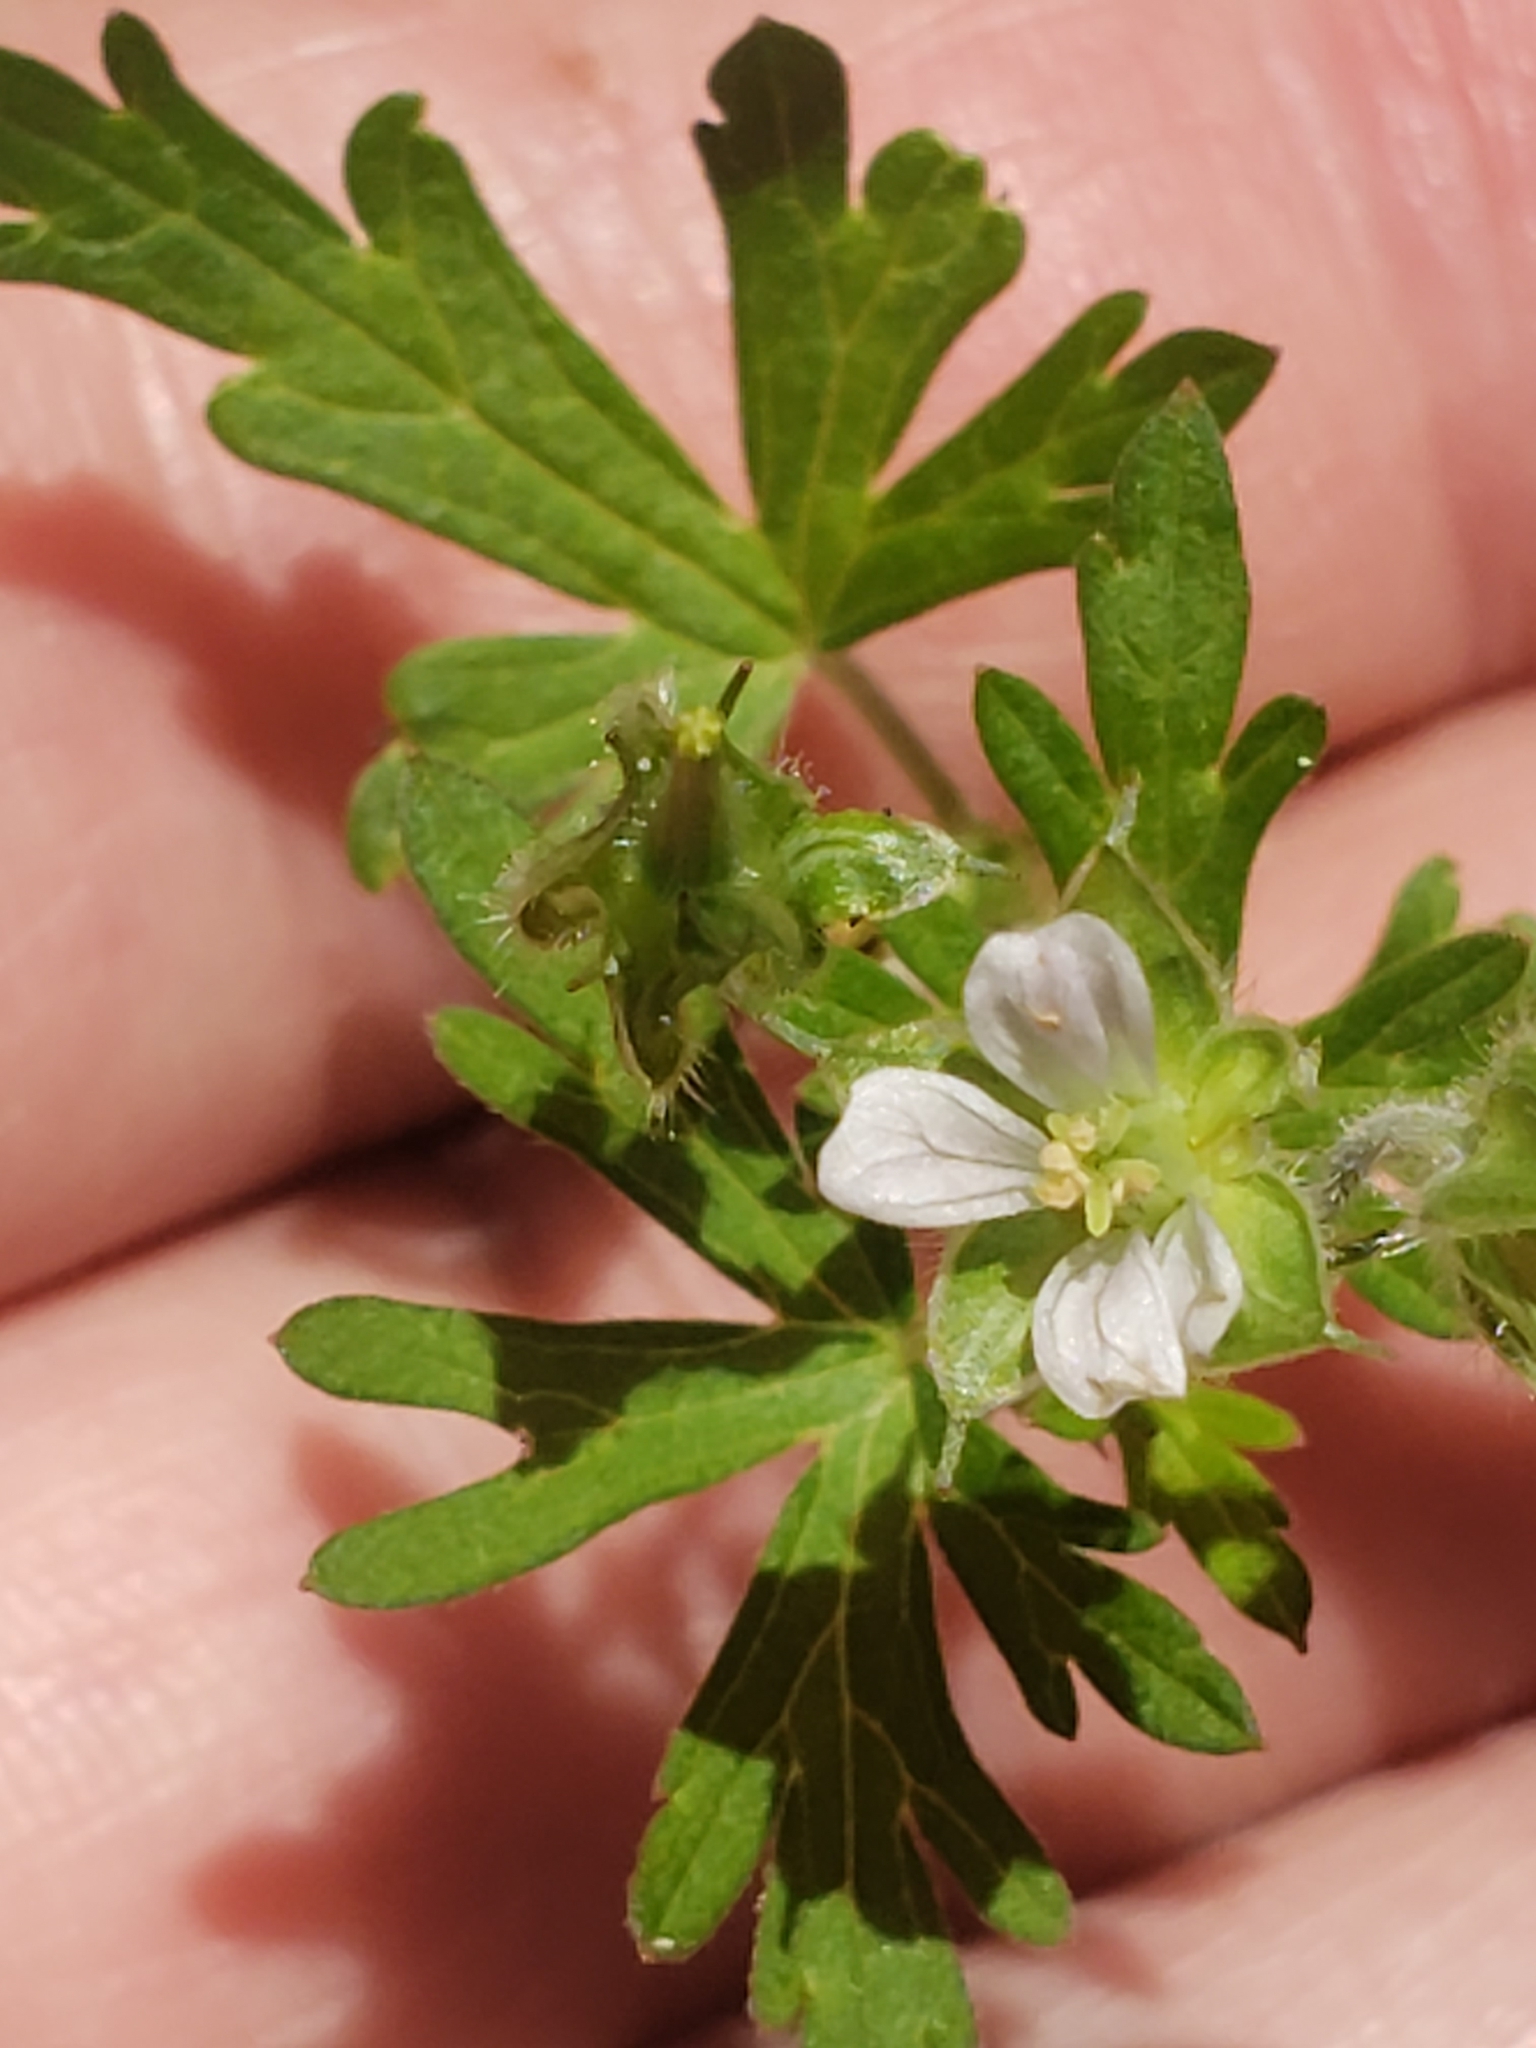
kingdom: Plantae
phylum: Tracheophyta
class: Magnoliopsida
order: Geraniales
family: Geraniaceae
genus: Geranium
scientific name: Geranium carolinianum
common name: Carolina crane's-bill
